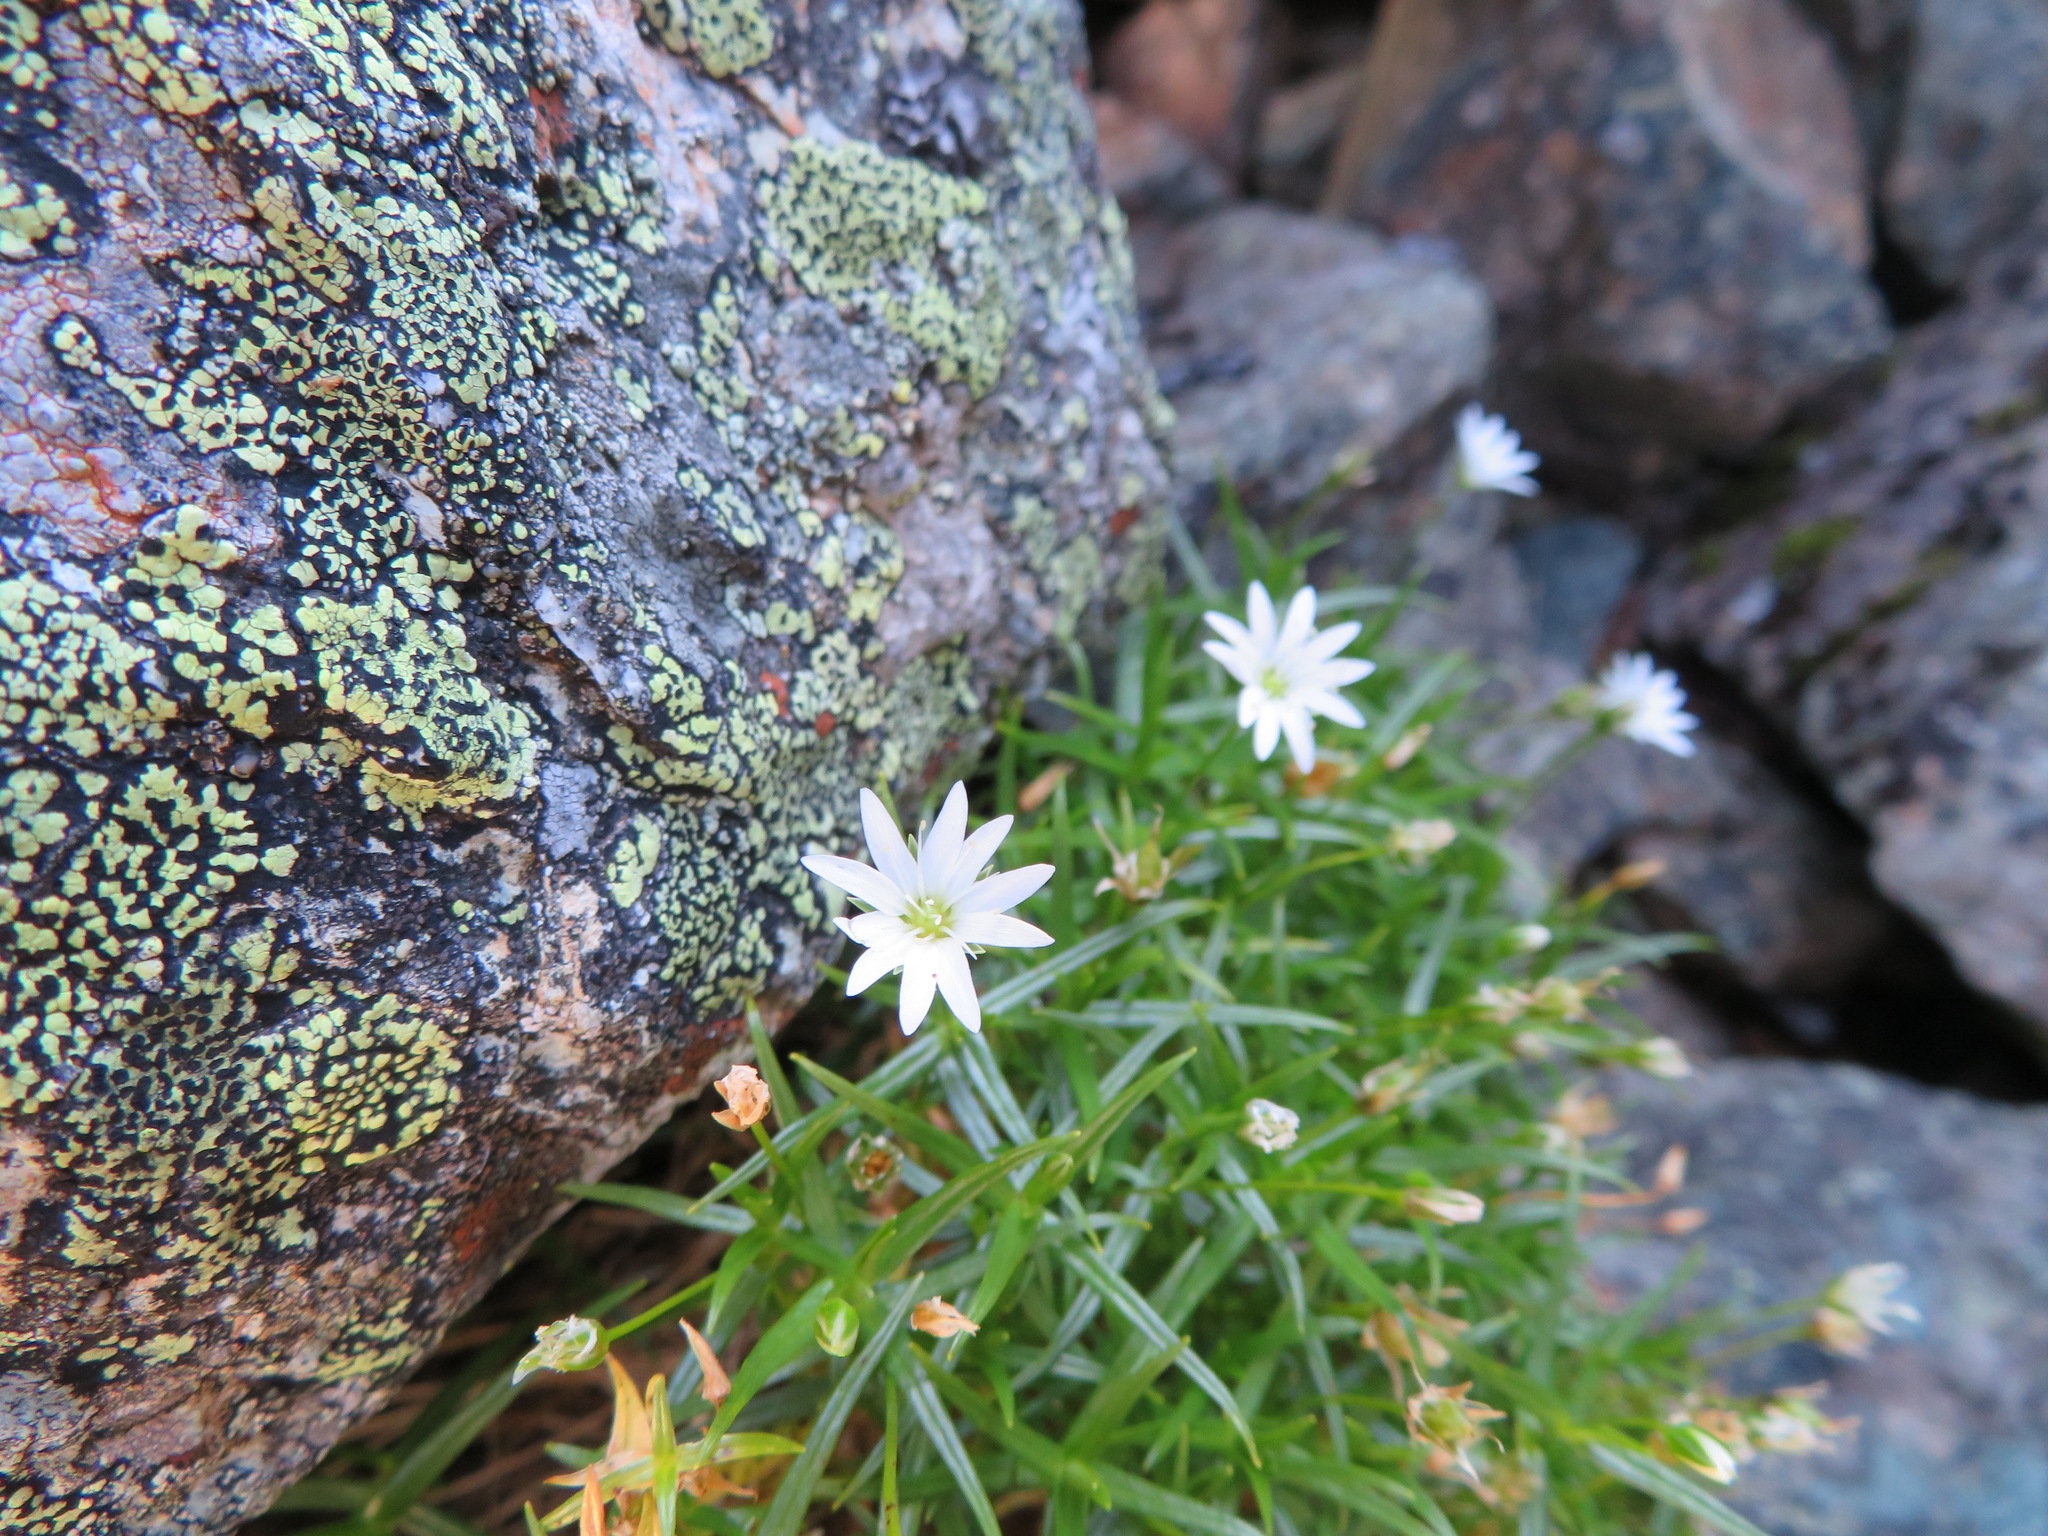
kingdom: Plantae
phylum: Tracheophyta
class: Magnoliopsida
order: Caryophyllales
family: Caryophyllaceae
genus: Stellaria
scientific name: Stellaria nipponica
